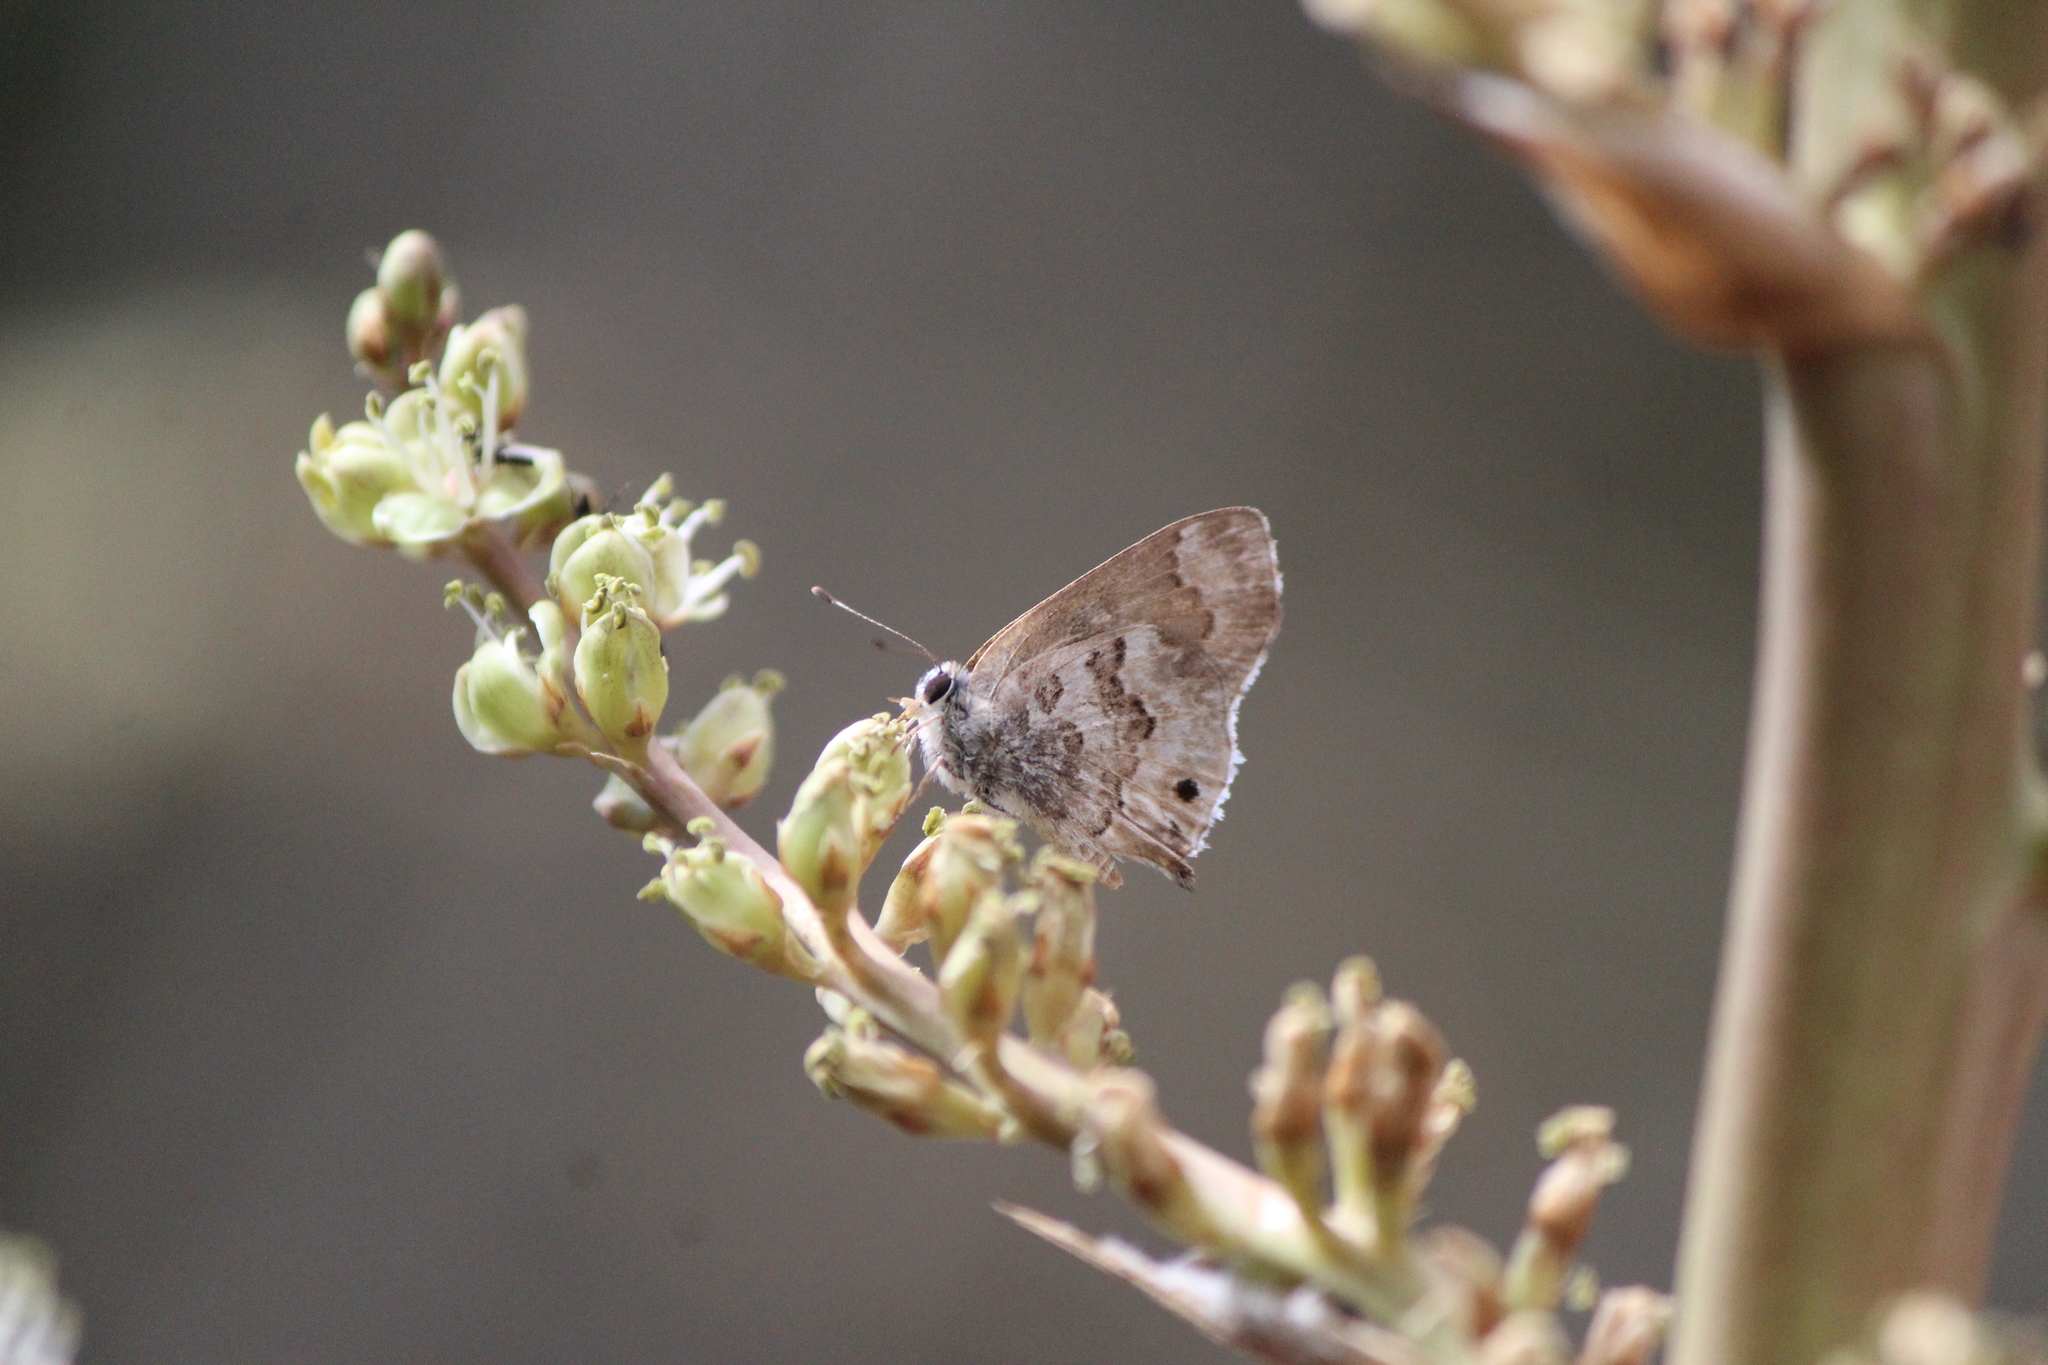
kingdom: Animalia
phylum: Arthropoda
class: Insecta
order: Lepidoptera
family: Lycaenidae
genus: Thecla
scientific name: Thecla cestri
